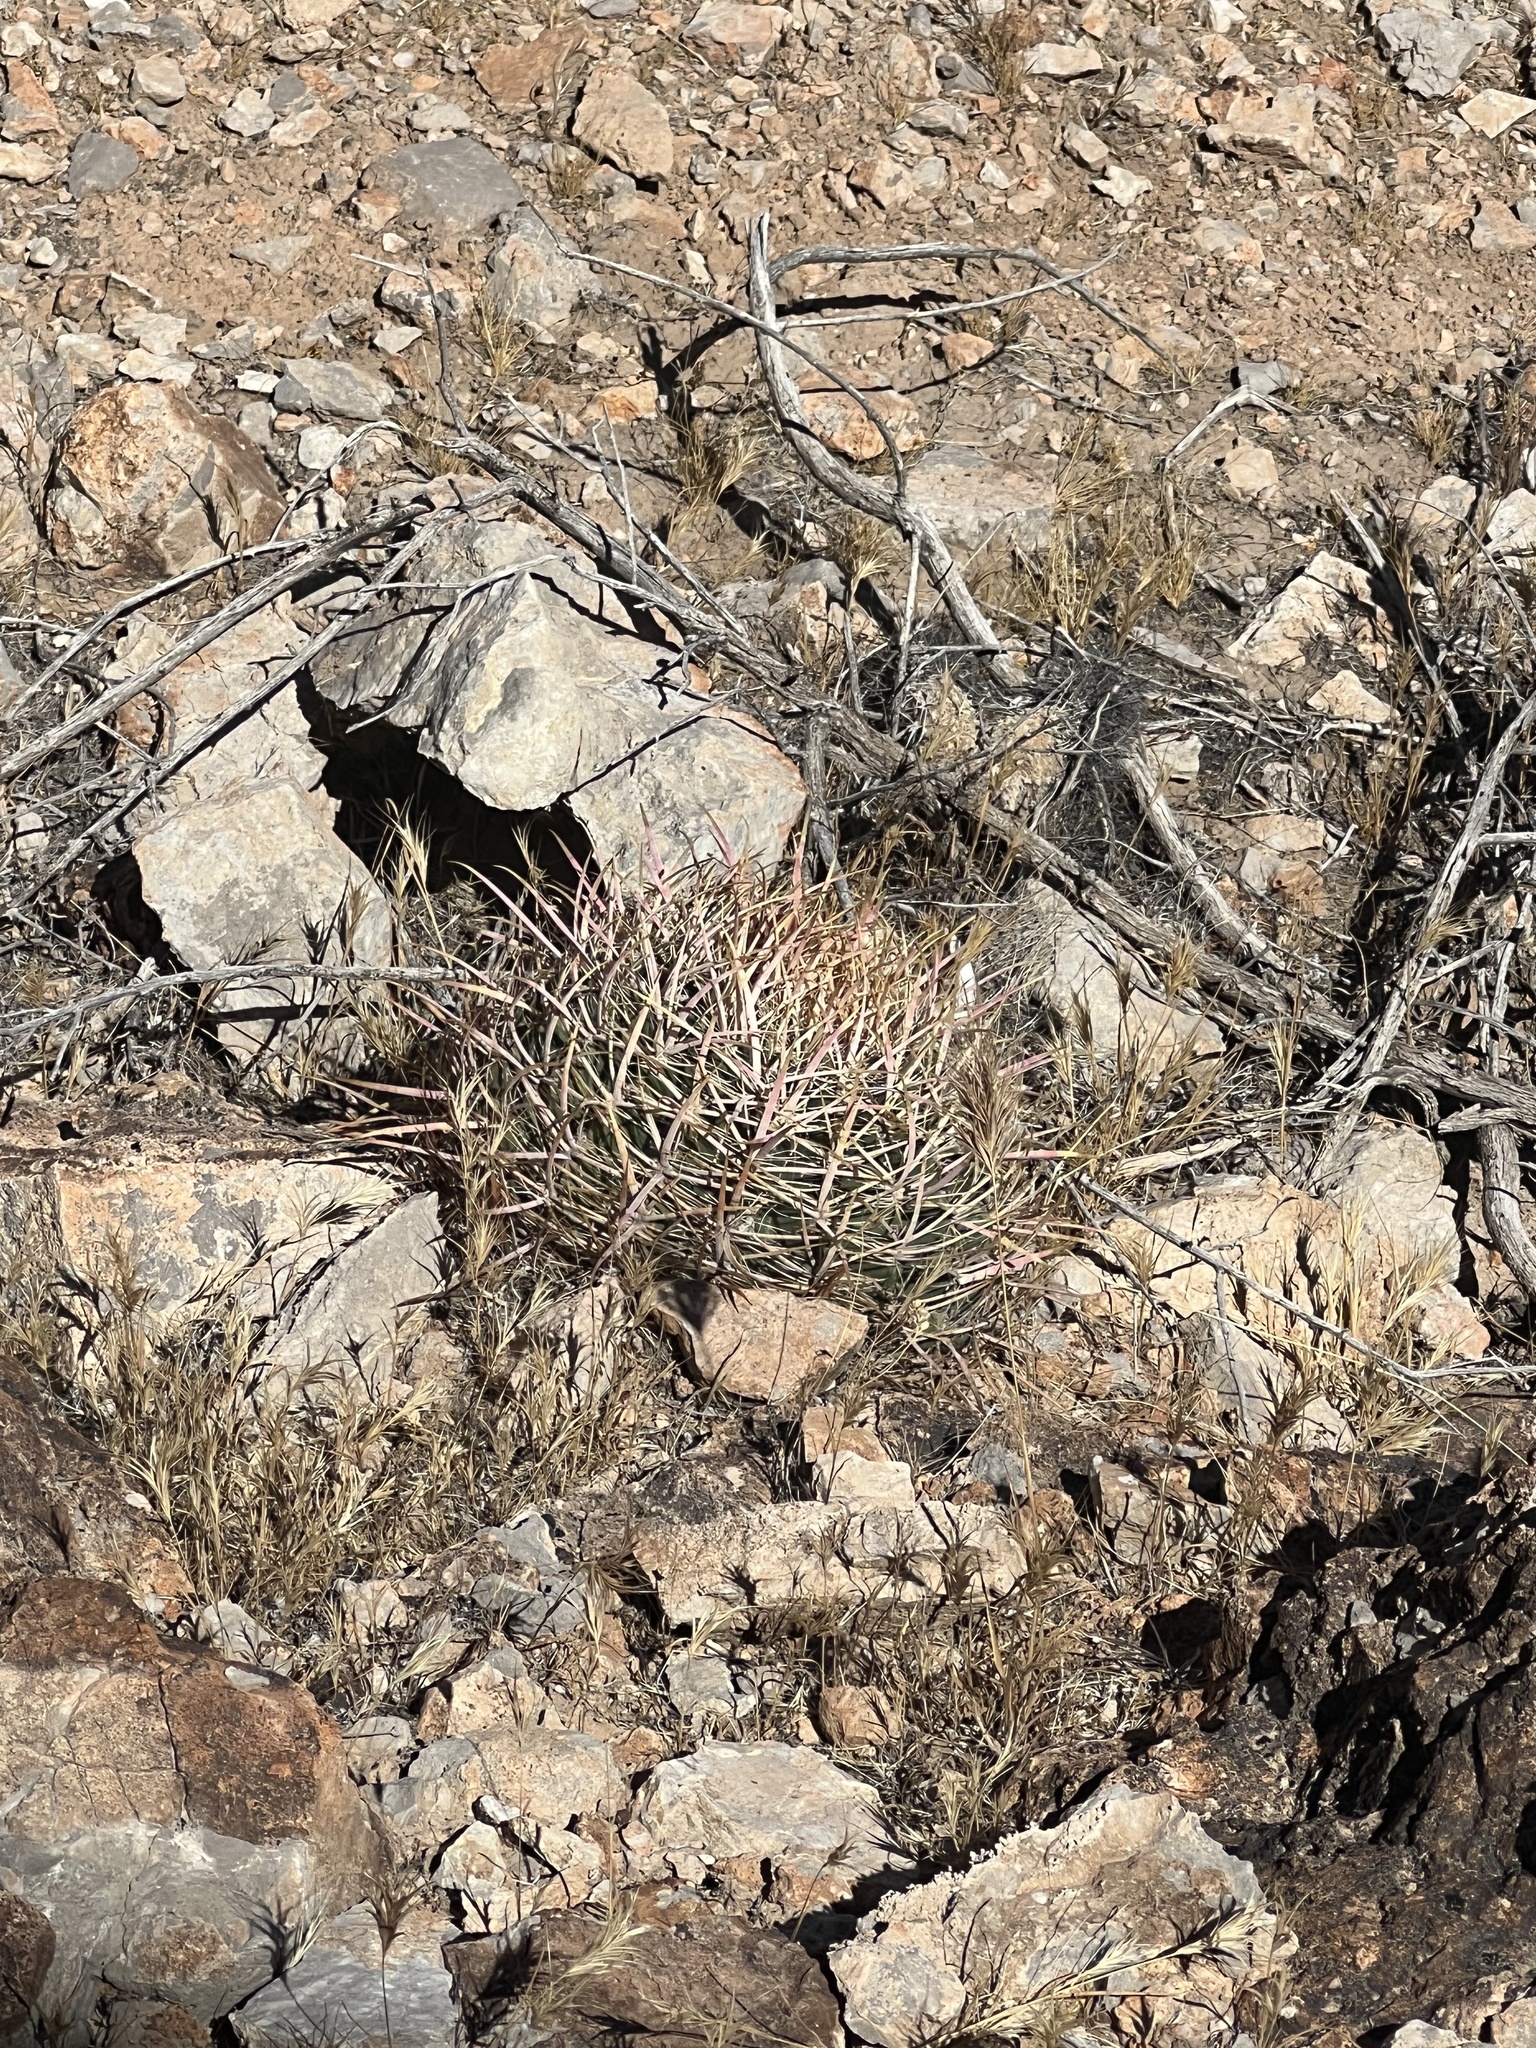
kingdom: Plantae
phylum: Tracheophyta
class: Magnoliopsida
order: Caryophyllales
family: Cactaceae
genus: Ferocactus
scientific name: Ferocactus cylindraceus
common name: California barrel cactus
